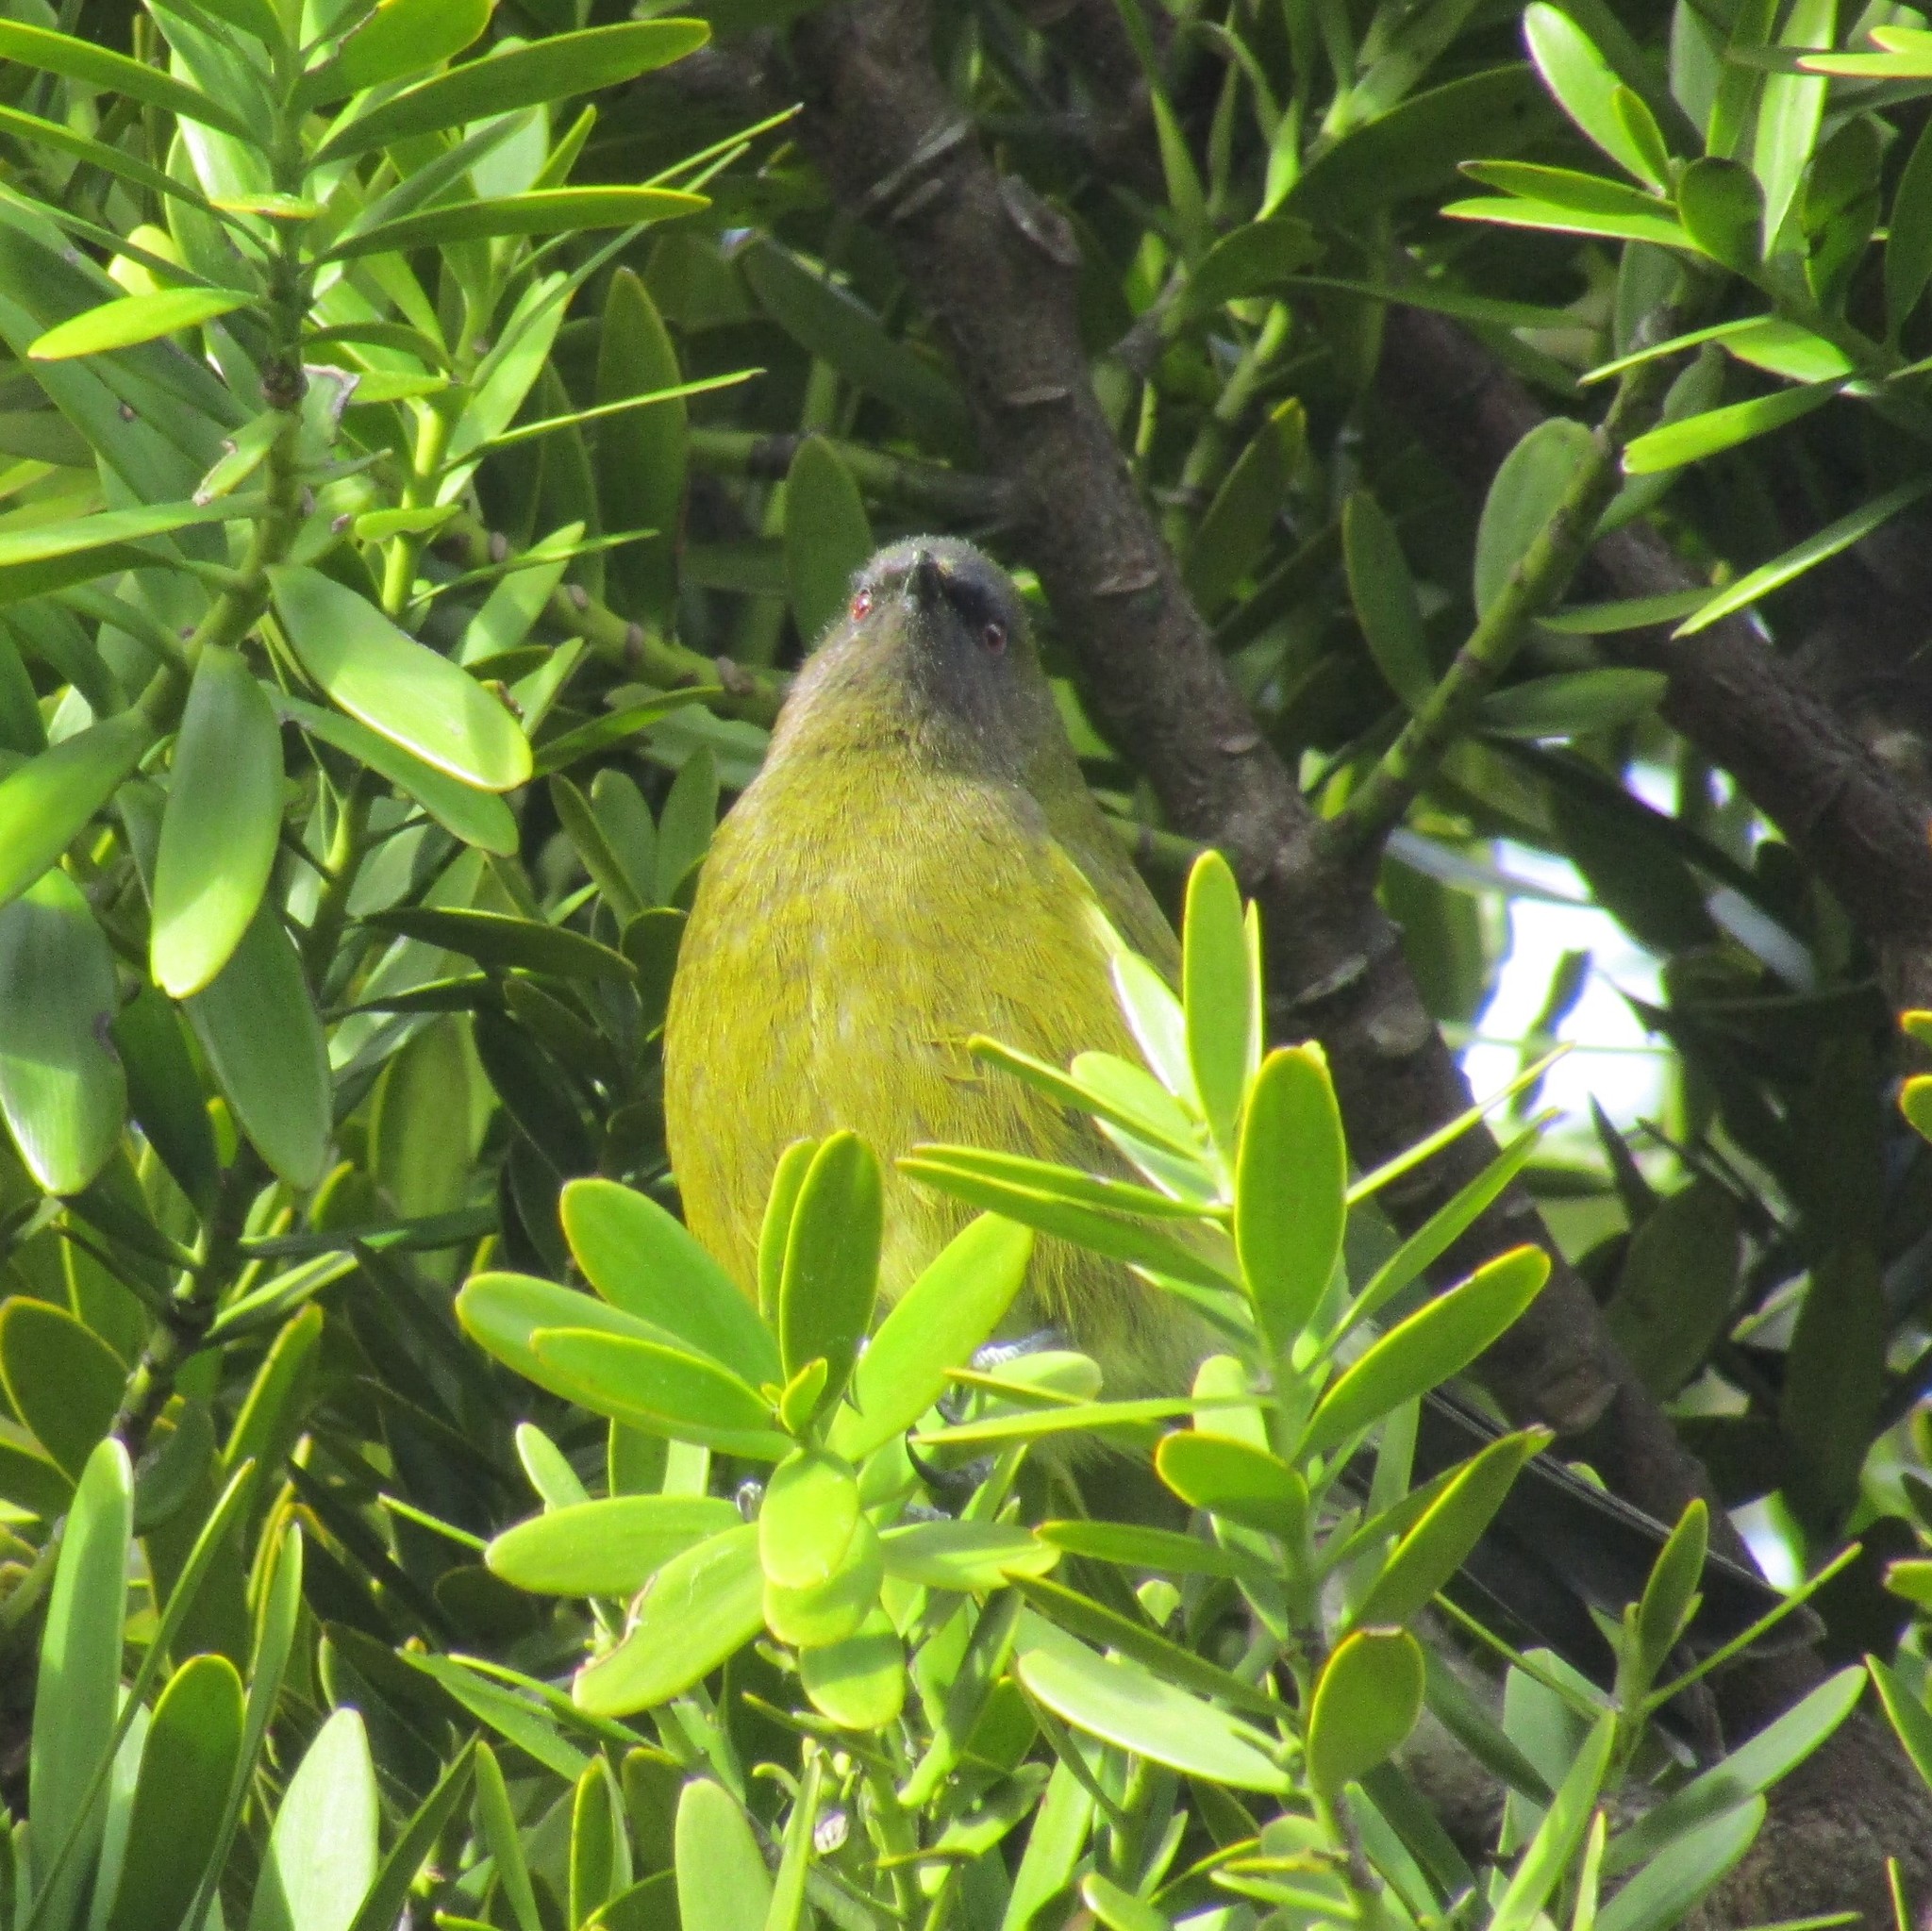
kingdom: Animalia
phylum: Chordata
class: Aves
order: Passeriformes
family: Meliphagidae
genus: Anthornis
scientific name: Anthornis melanura
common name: New zealand bellbird
